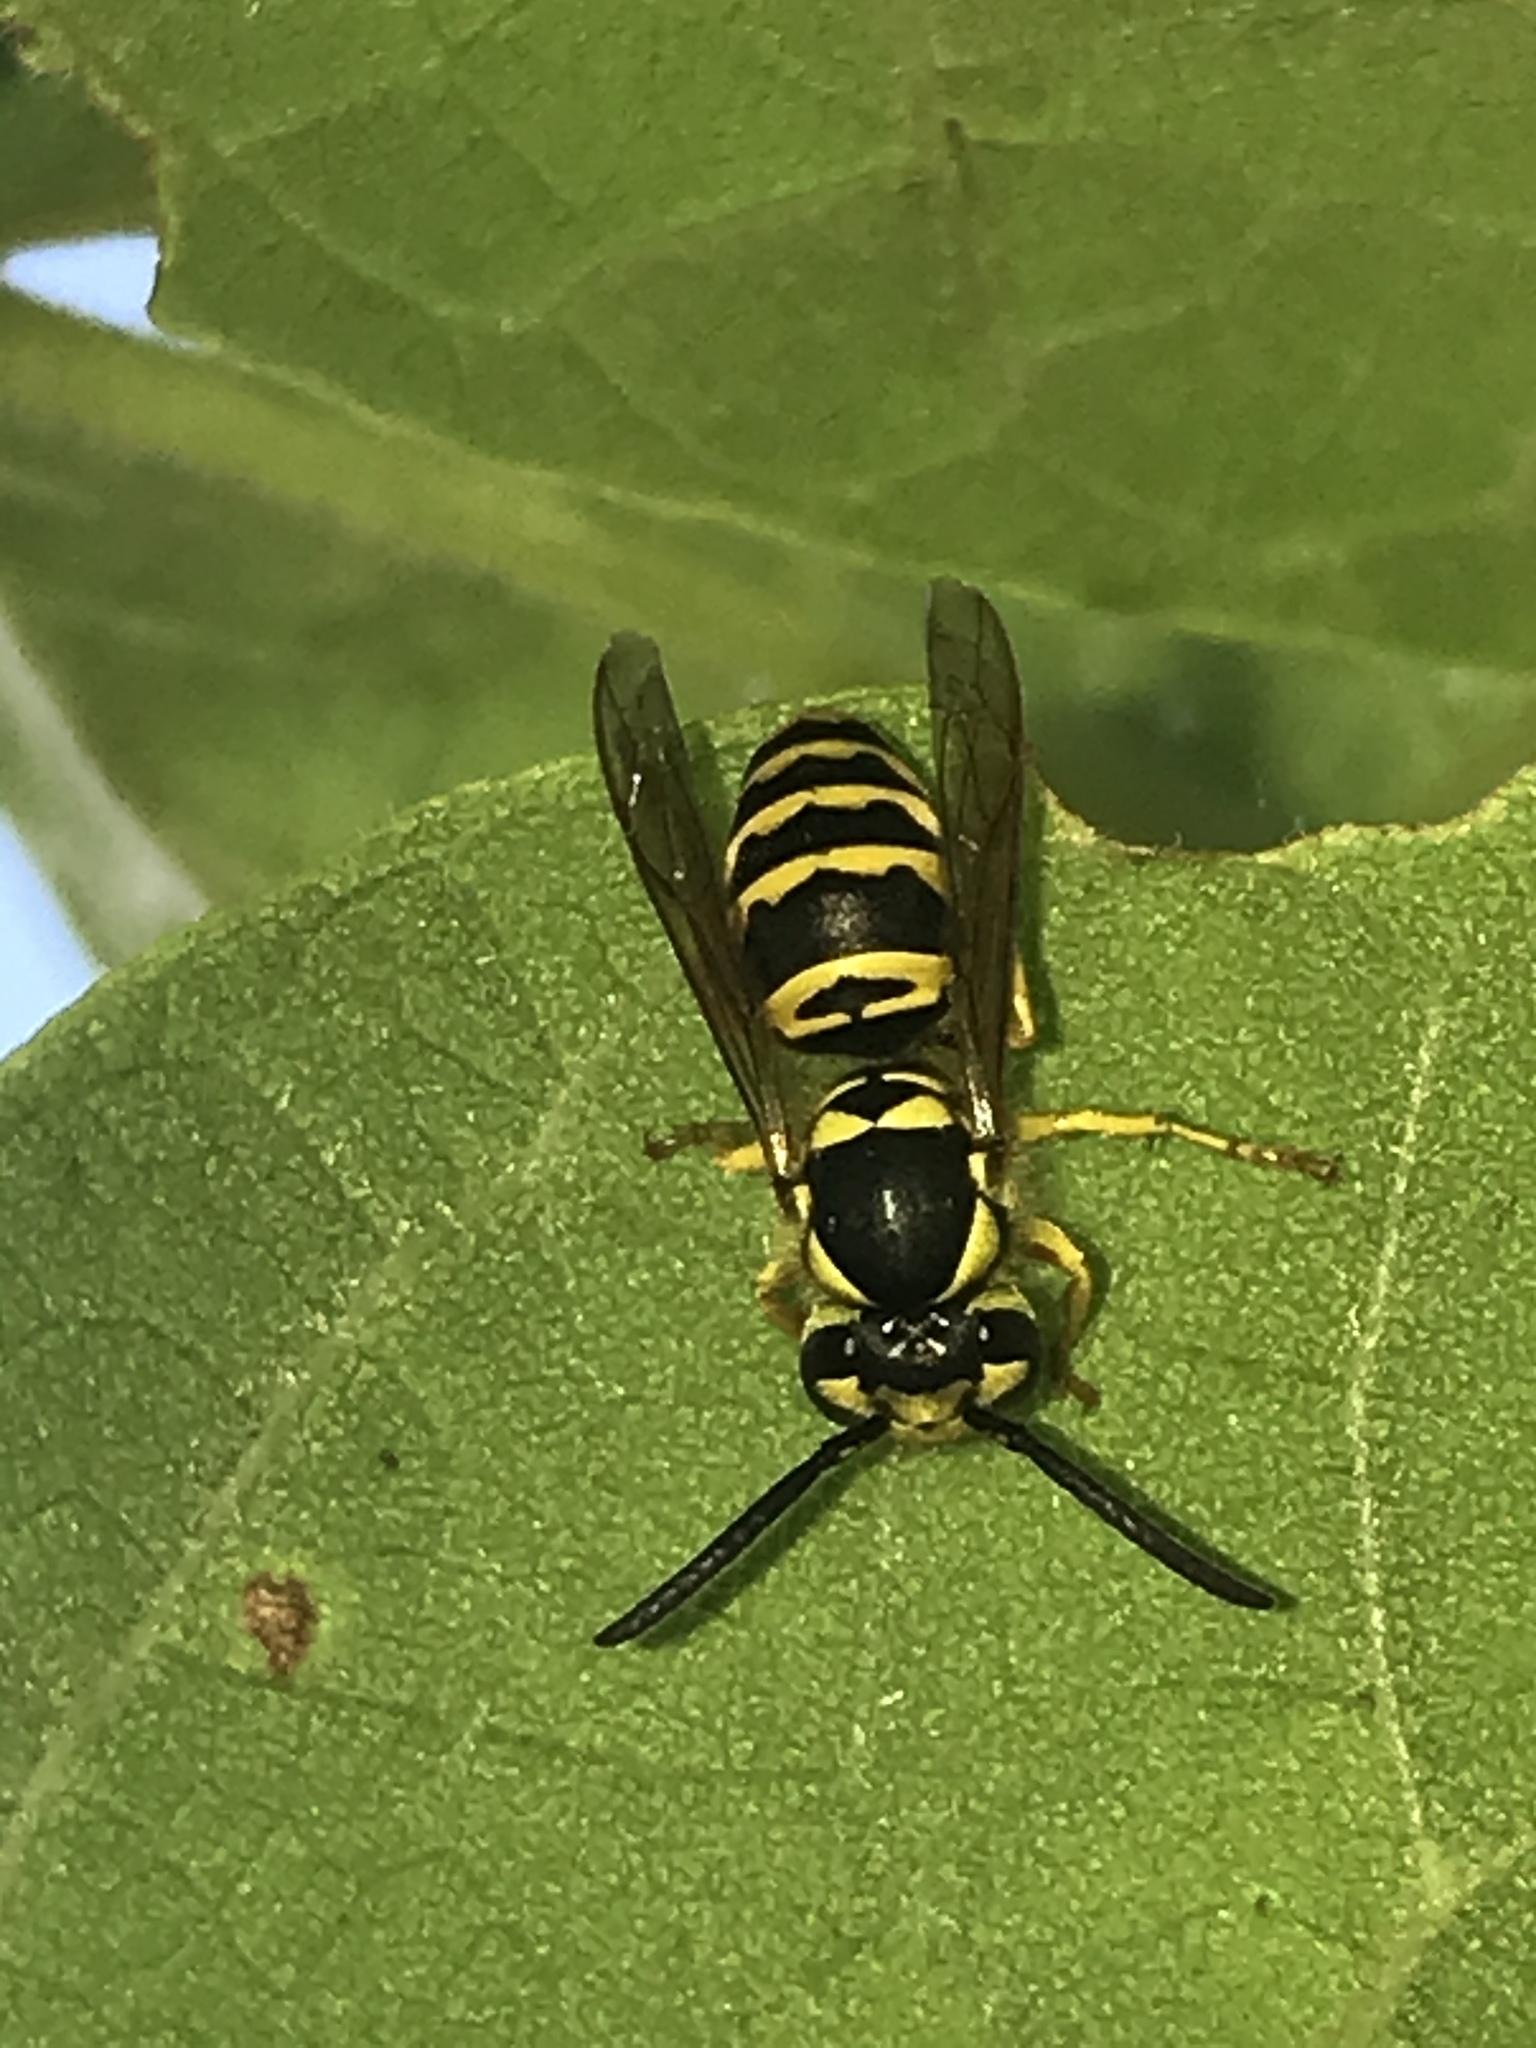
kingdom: Animalia
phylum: Arthropoda
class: Insecta
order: Hymenoptera
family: Vespidae
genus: Vespula
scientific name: Vespula maculifrons
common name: Eastern yellowjacket
